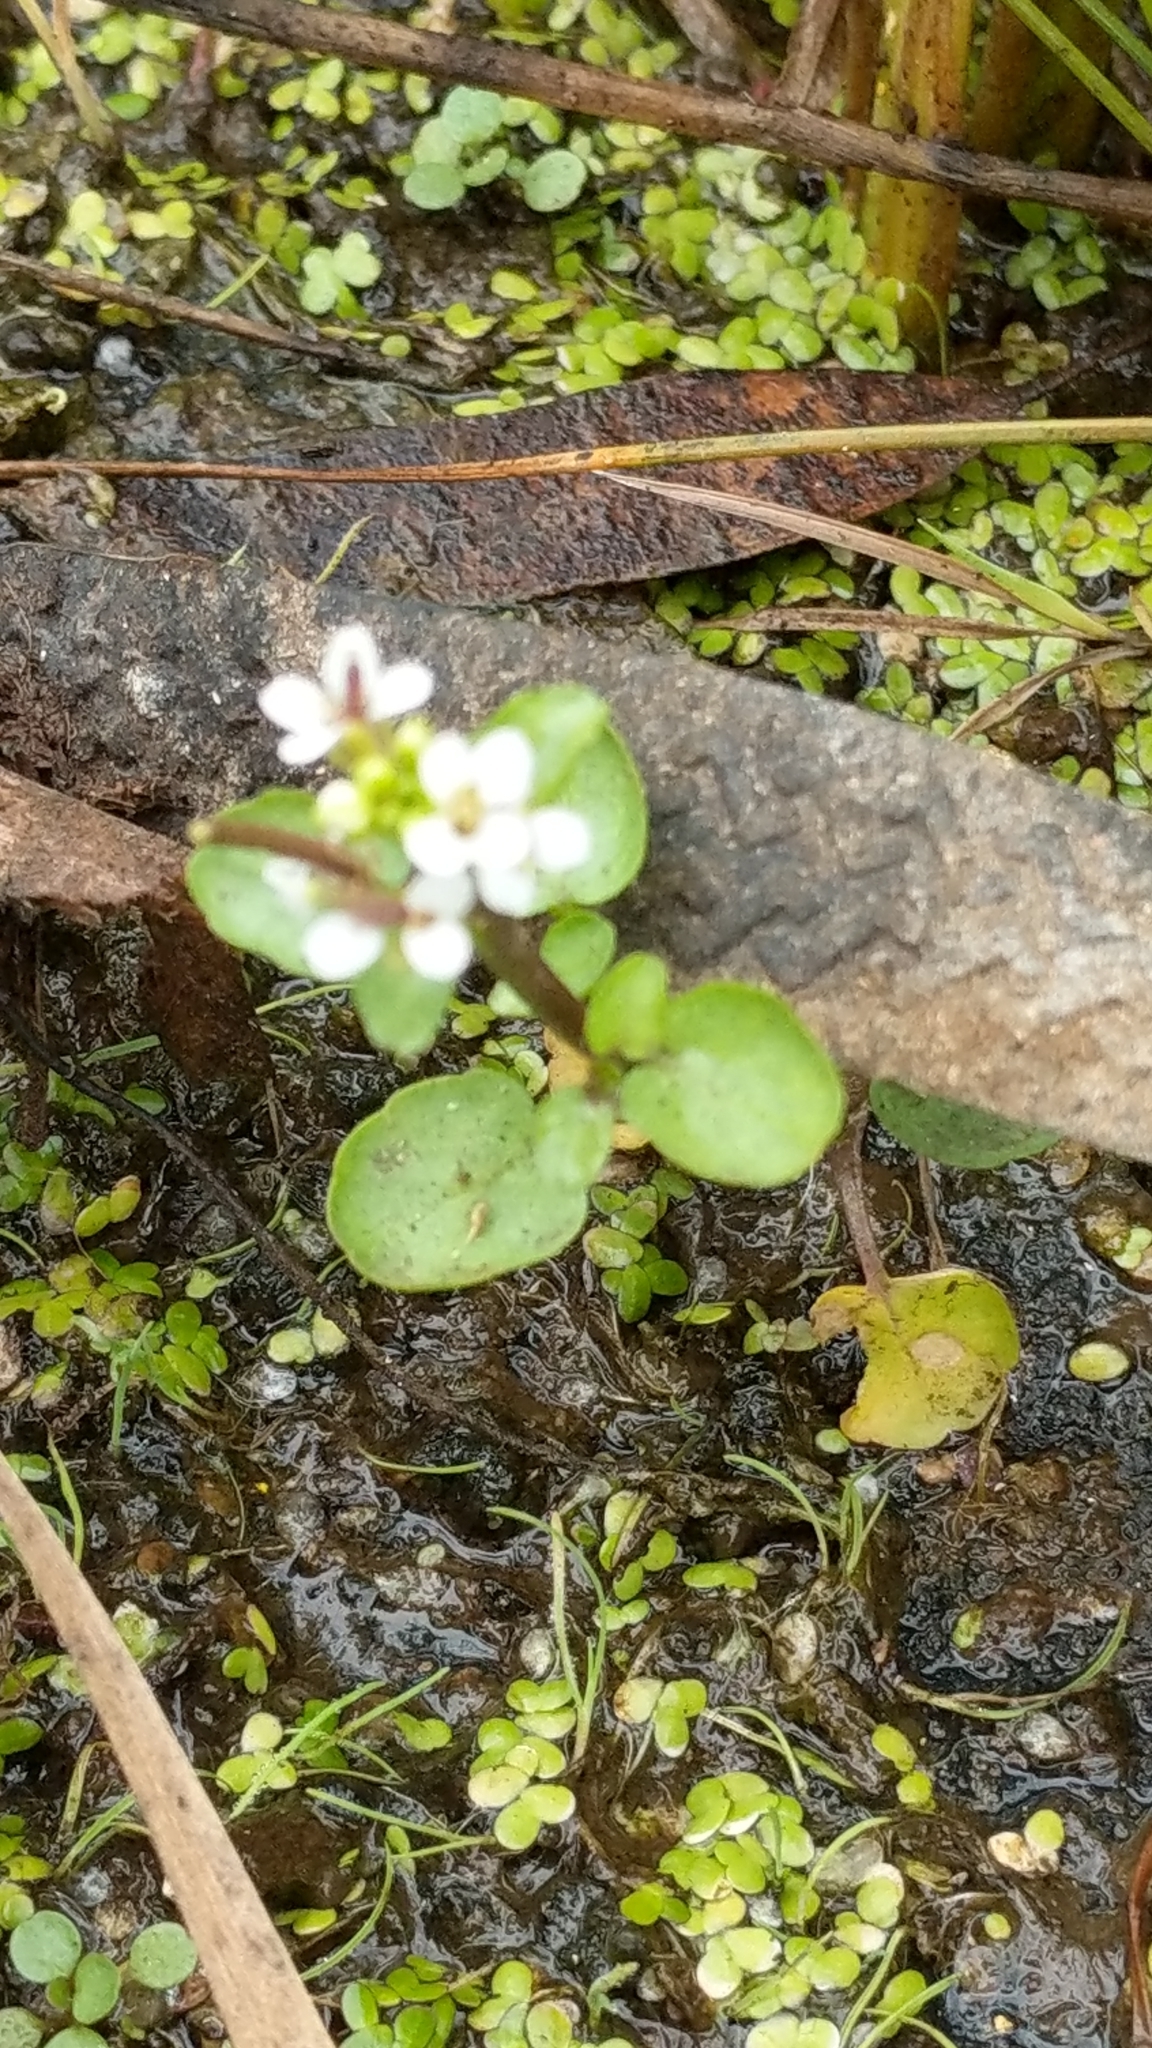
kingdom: Plantae
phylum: Tracheophyta
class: Magnoliopsida
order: Brassicales
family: Brassicaceae
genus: Nasturtium
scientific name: Nasturtium officinale
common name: Watercress
